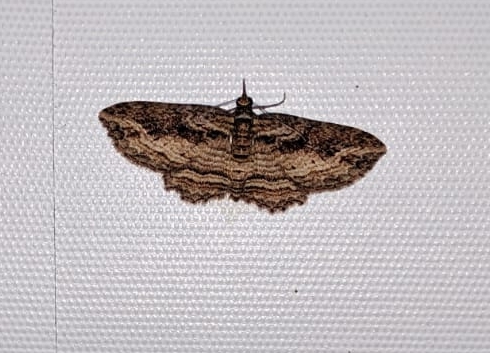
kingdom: Animalia
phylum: Arthropoda
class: Insecta
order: Lepidoptera
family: Geometridae
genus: Chloroclystis
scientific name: Chloroclystis filata
